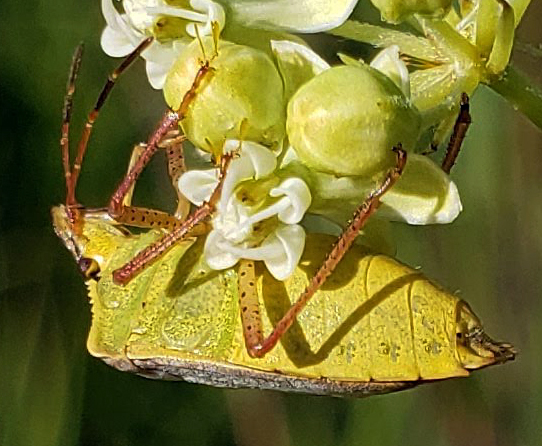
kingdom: Animalia
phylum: Arthropoda
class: Insecta
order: Hemiptera
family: Pentatomidae
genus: Euschistus
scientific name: Euschistus servus
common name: Brown stink bug
